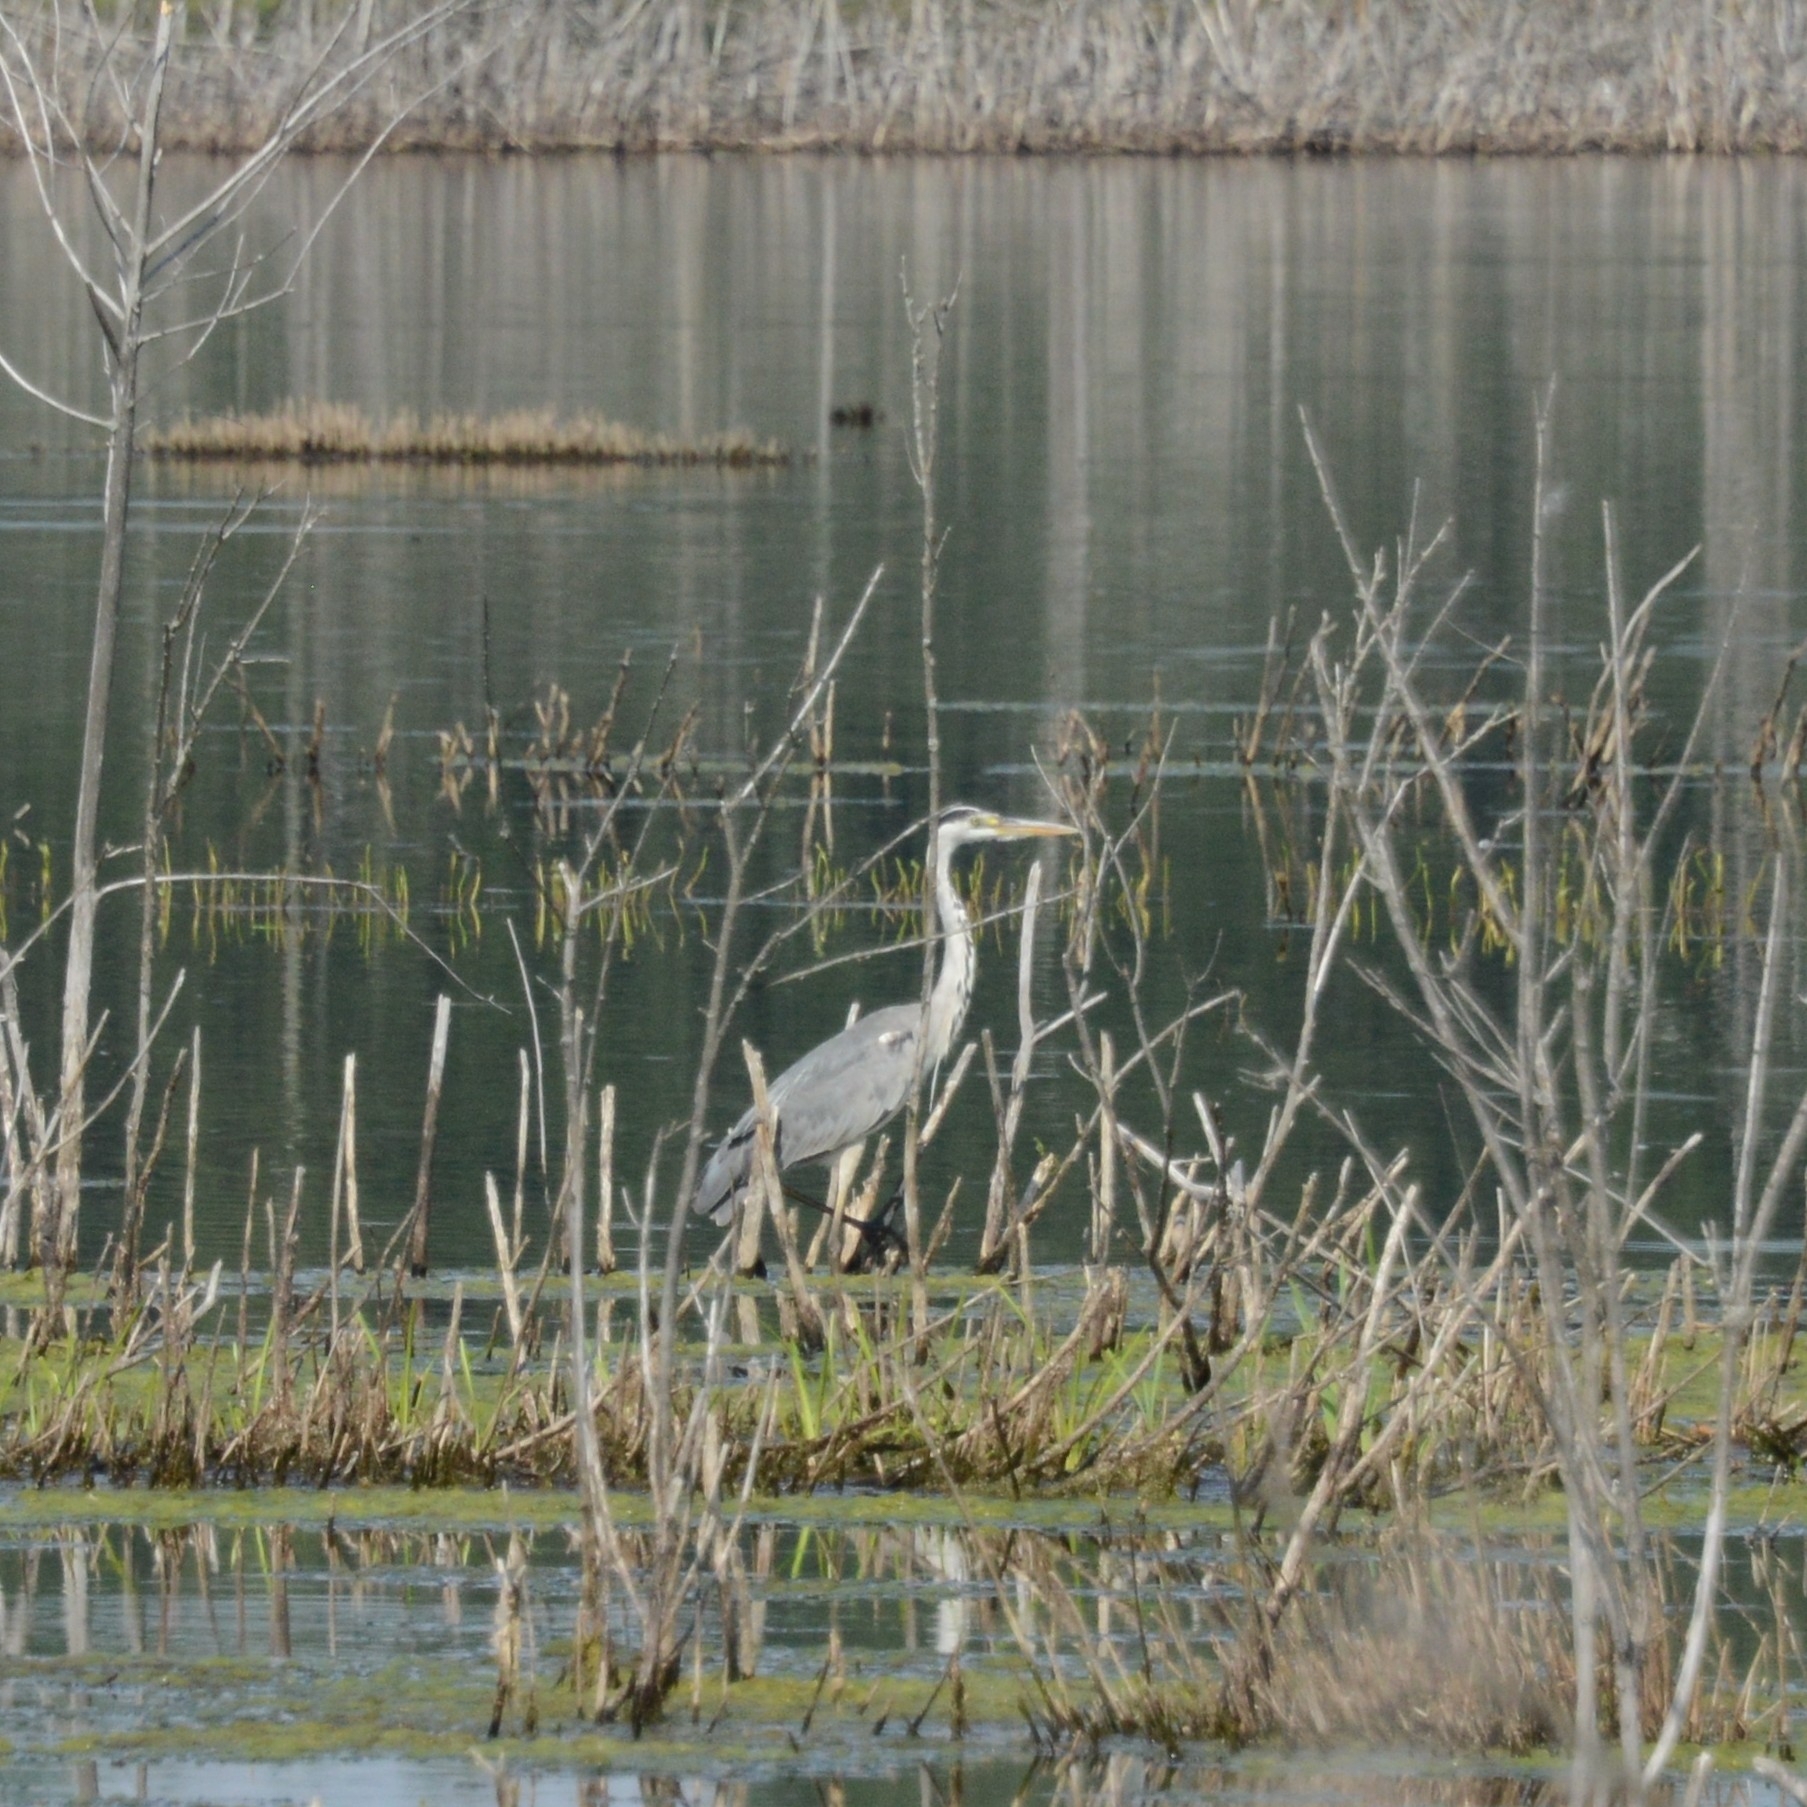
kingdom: Animalia
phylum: Chordata
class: Aves
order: Pelecaniformes
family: Ardeidae
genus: Ardea
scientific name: Ardea cinerea
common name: Grey heron
